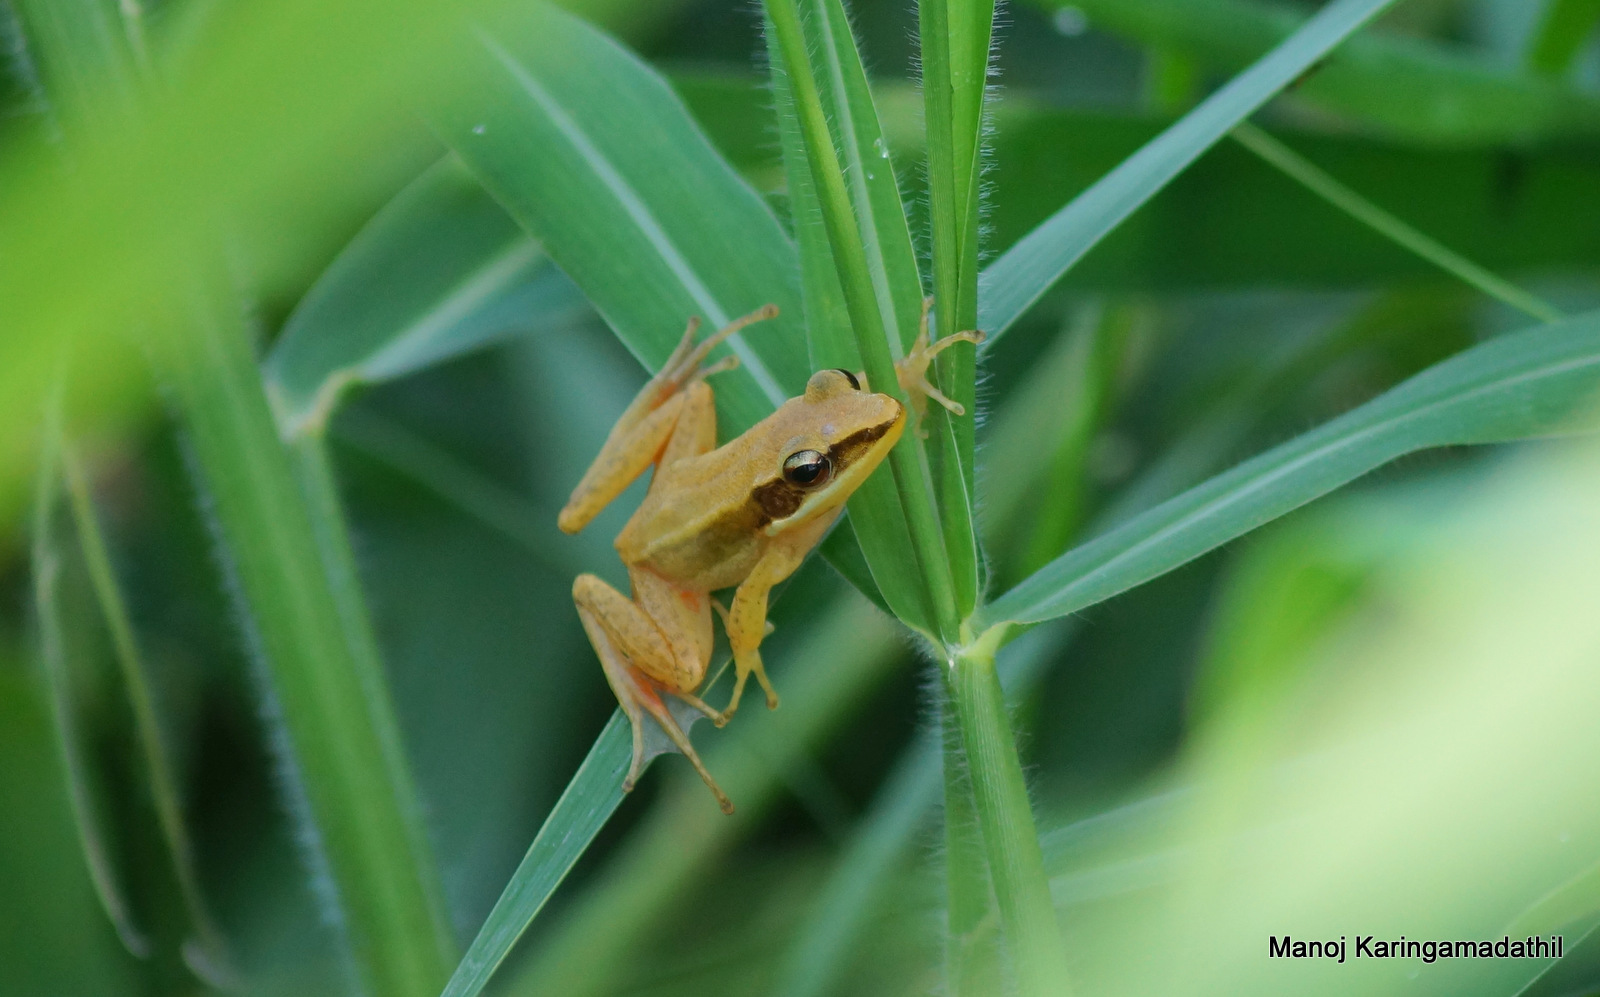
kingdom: Animalia
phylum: Chordata
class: Amphibia
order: Anura
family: Ranidae
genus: Indosylvirana
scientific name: Indosylvirana urbis
